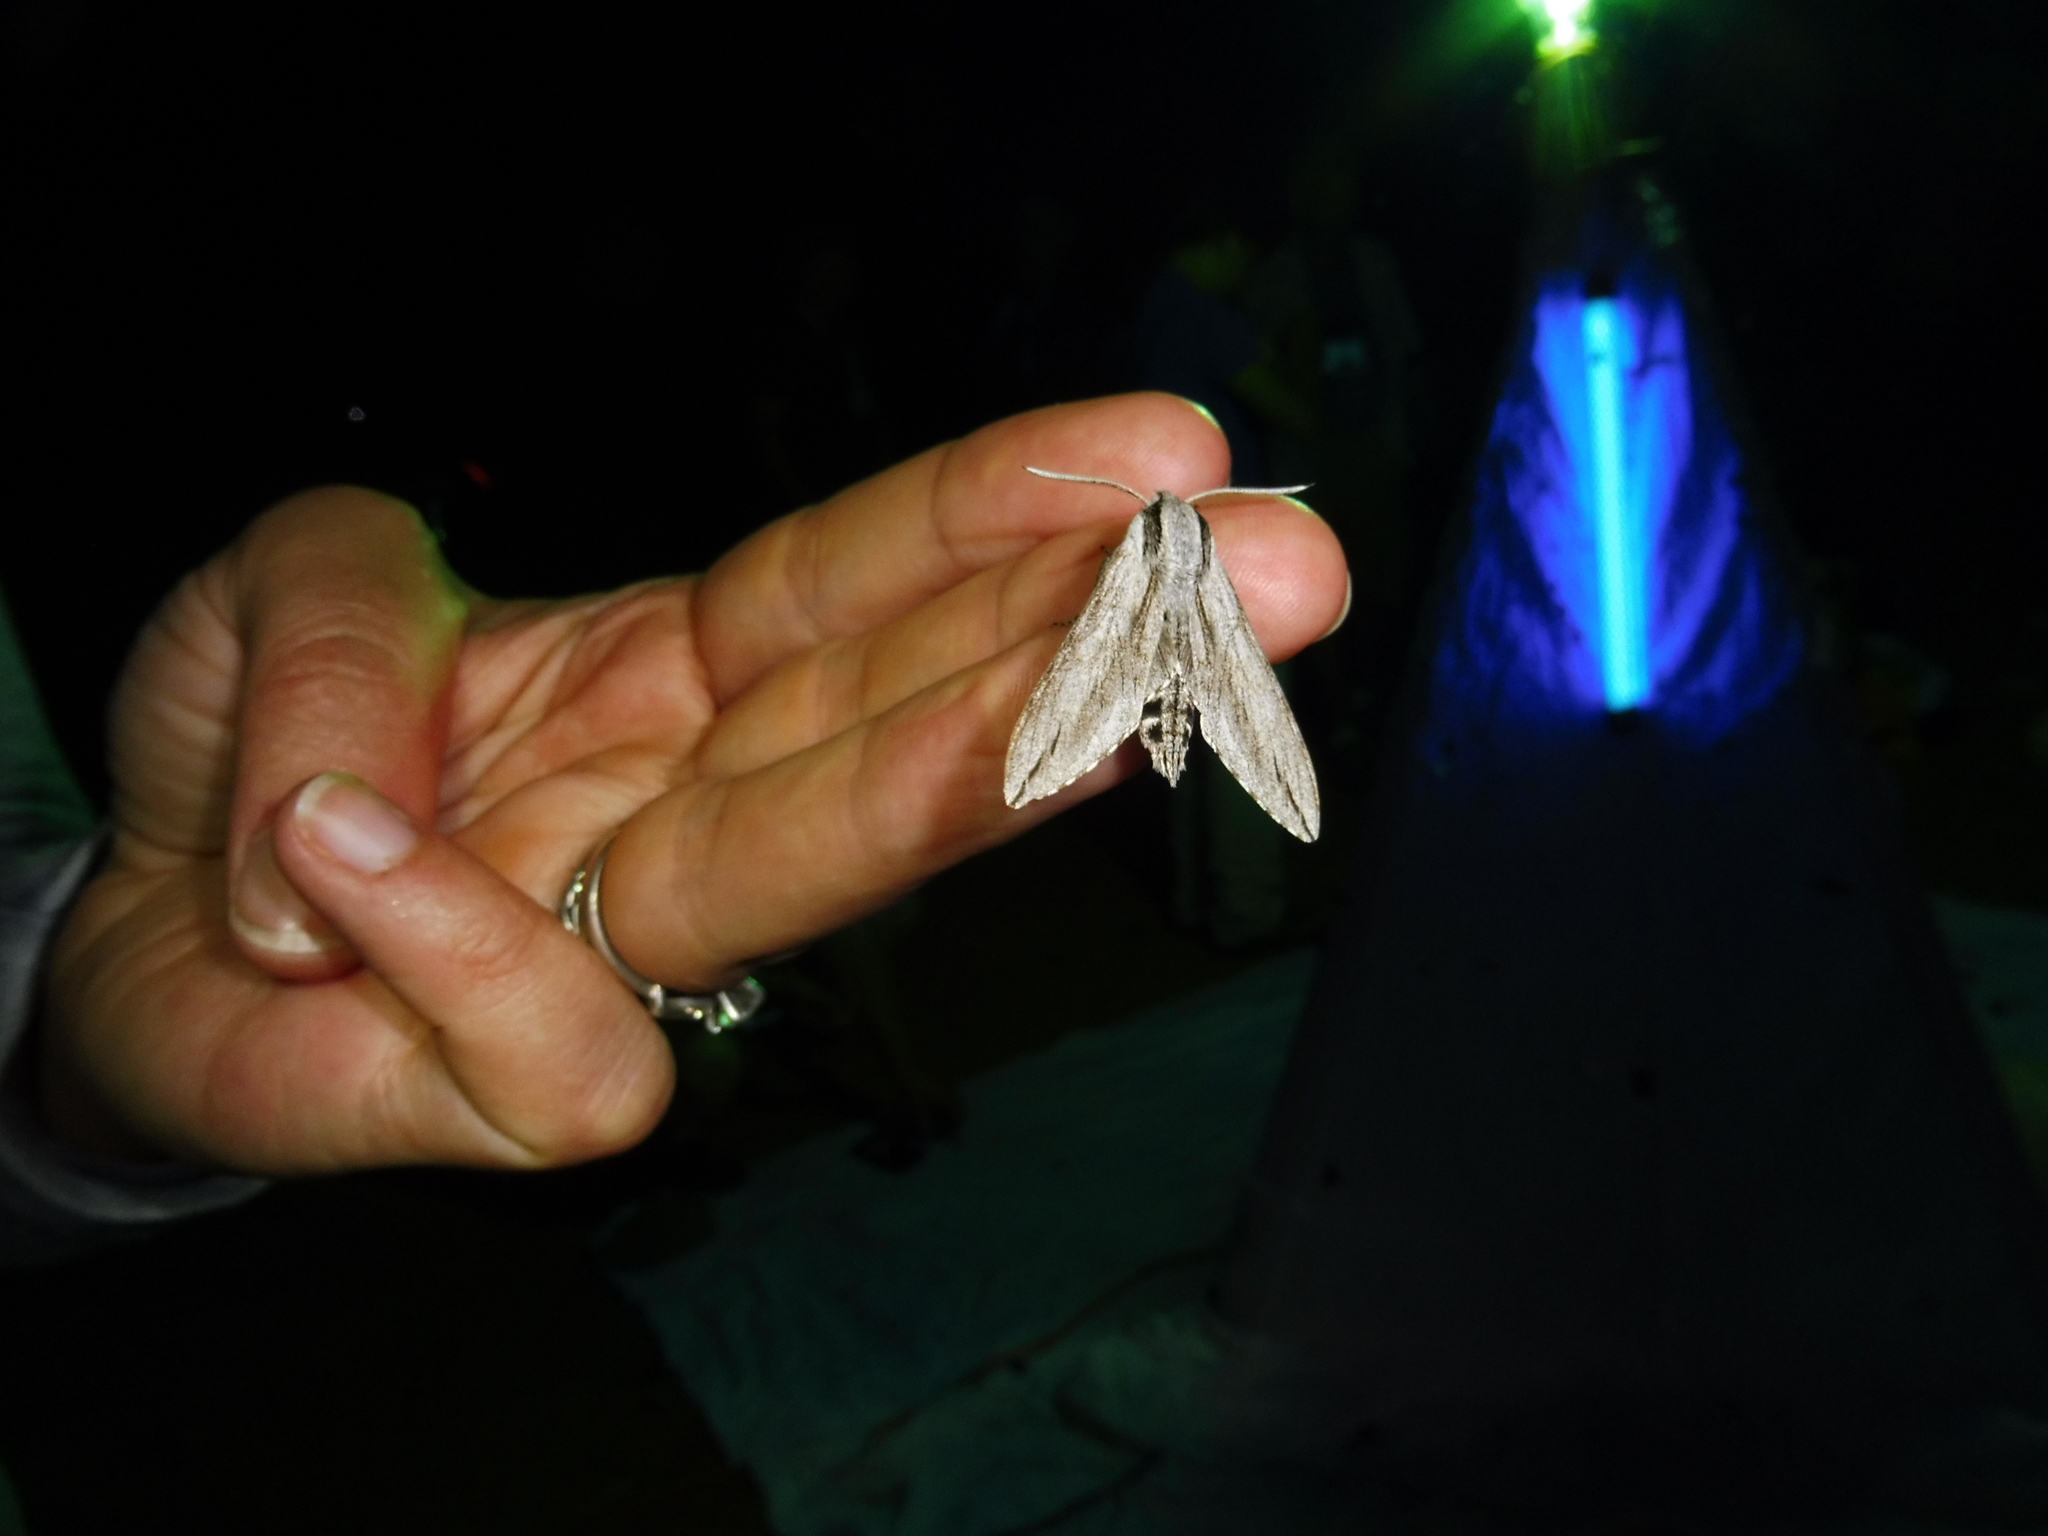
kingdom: Animalia
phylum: Arthropoda
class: Insecta
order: Lepidoptera
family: Sphingidae
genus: Sphinx
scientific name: Sphinx dollii
